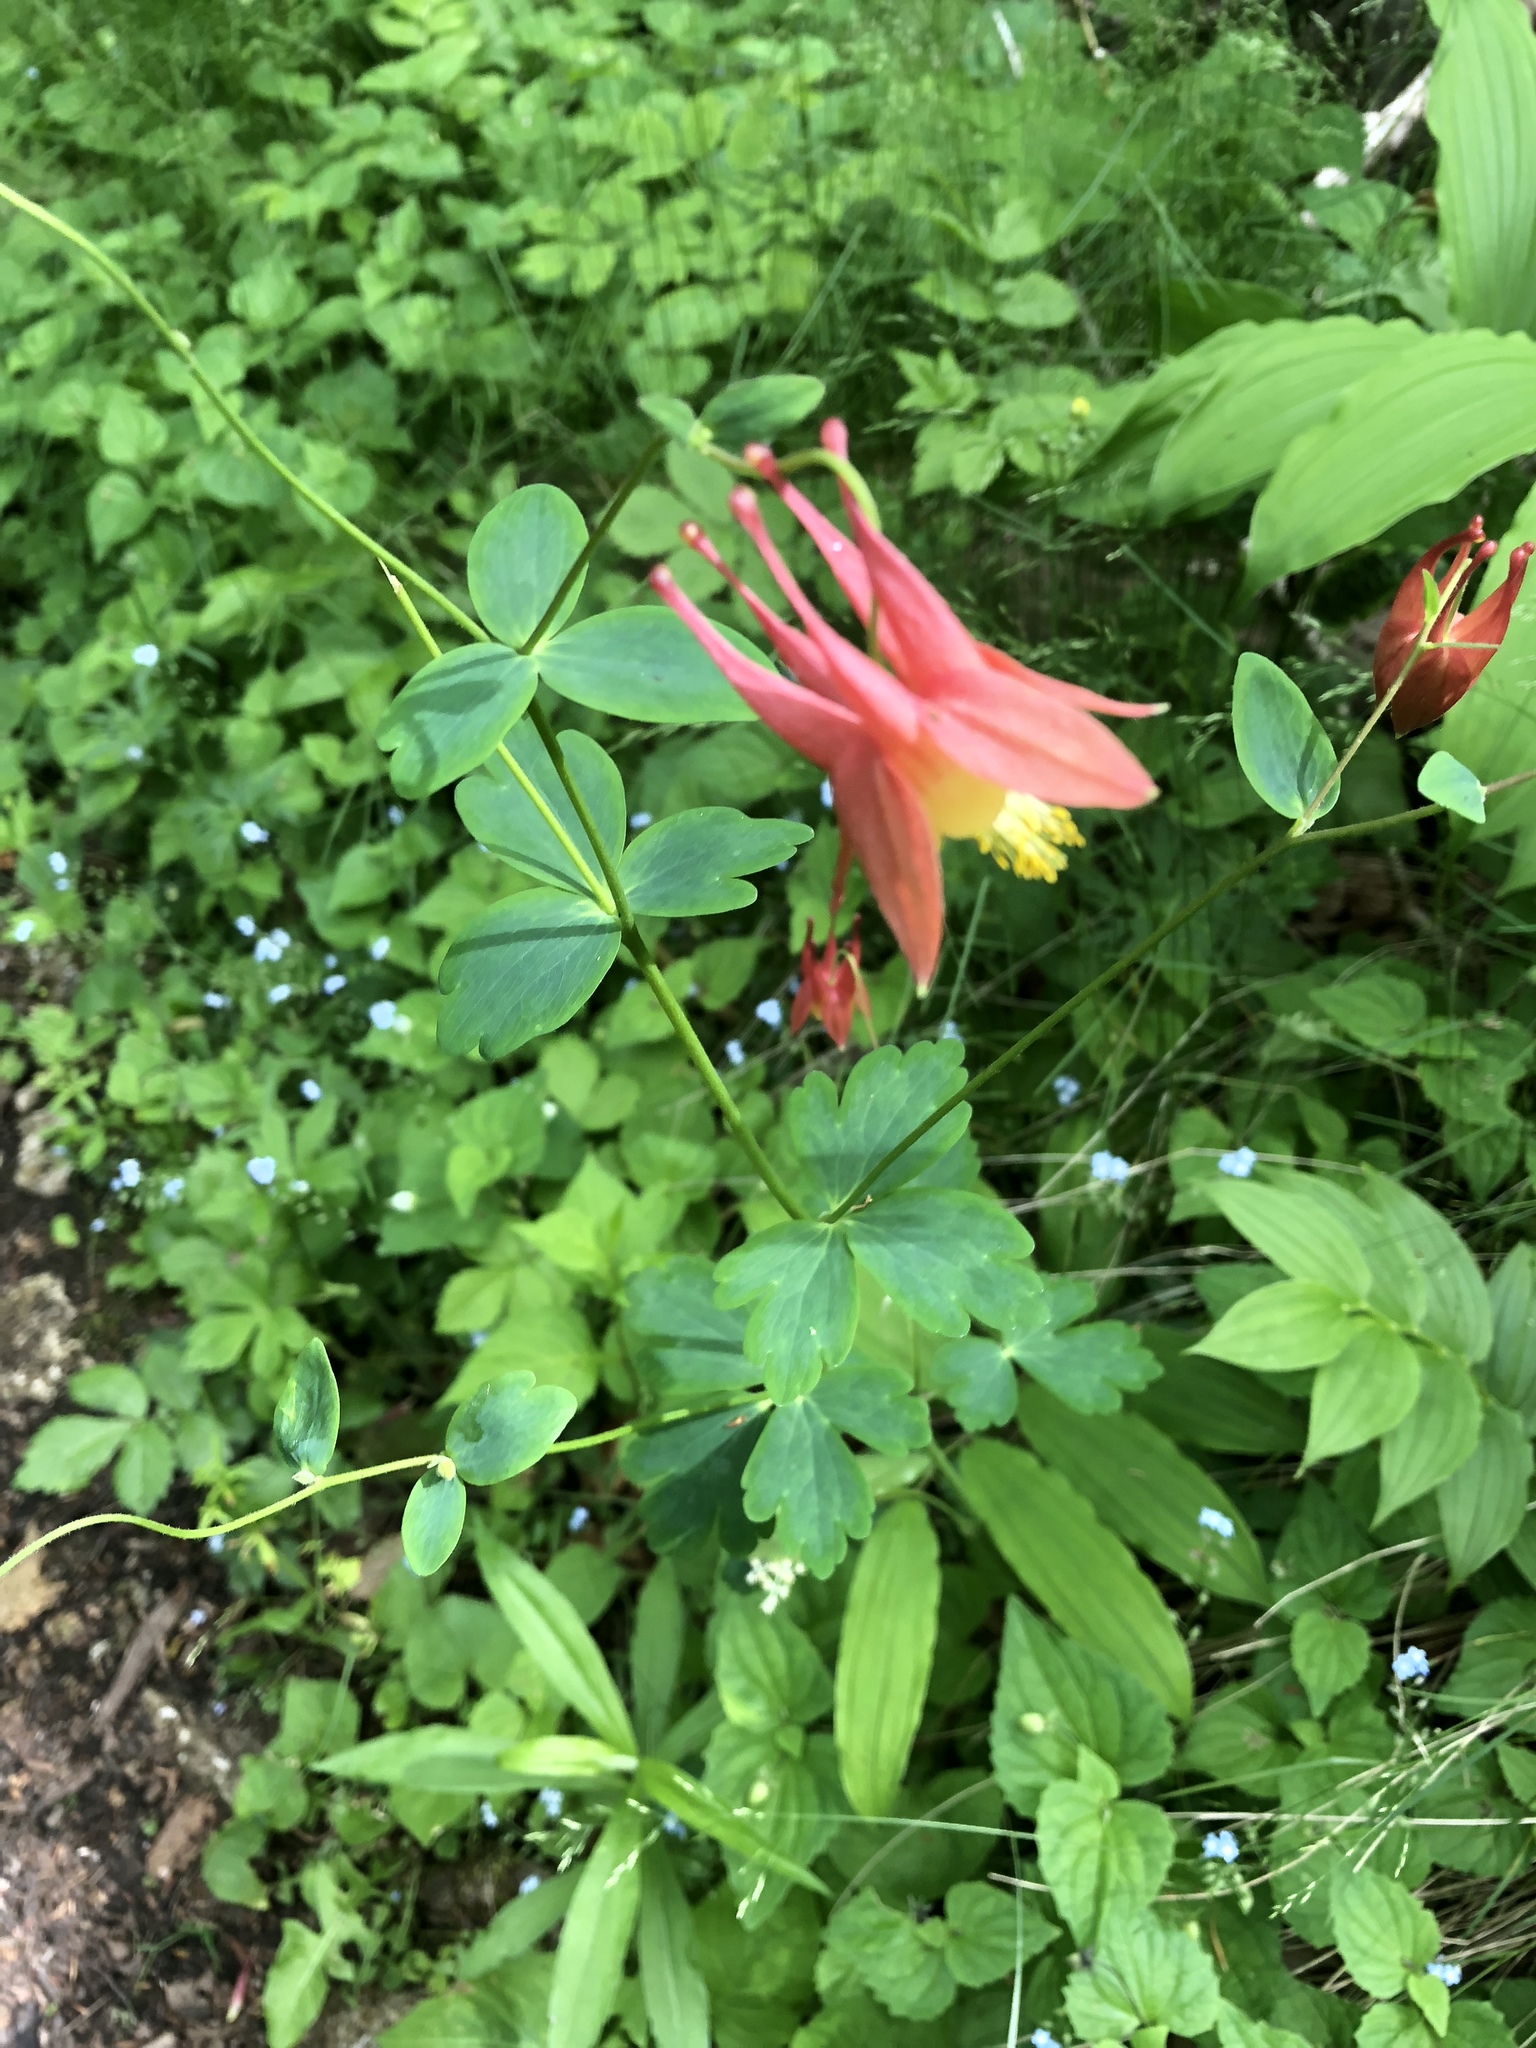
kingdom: Plantae
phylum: Tracheophyta
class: Magnoliopsida
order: Ranunculales
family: Ranunculaceae
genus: Aquilegia
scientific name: Aquilegia canadensis
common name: American columbine
